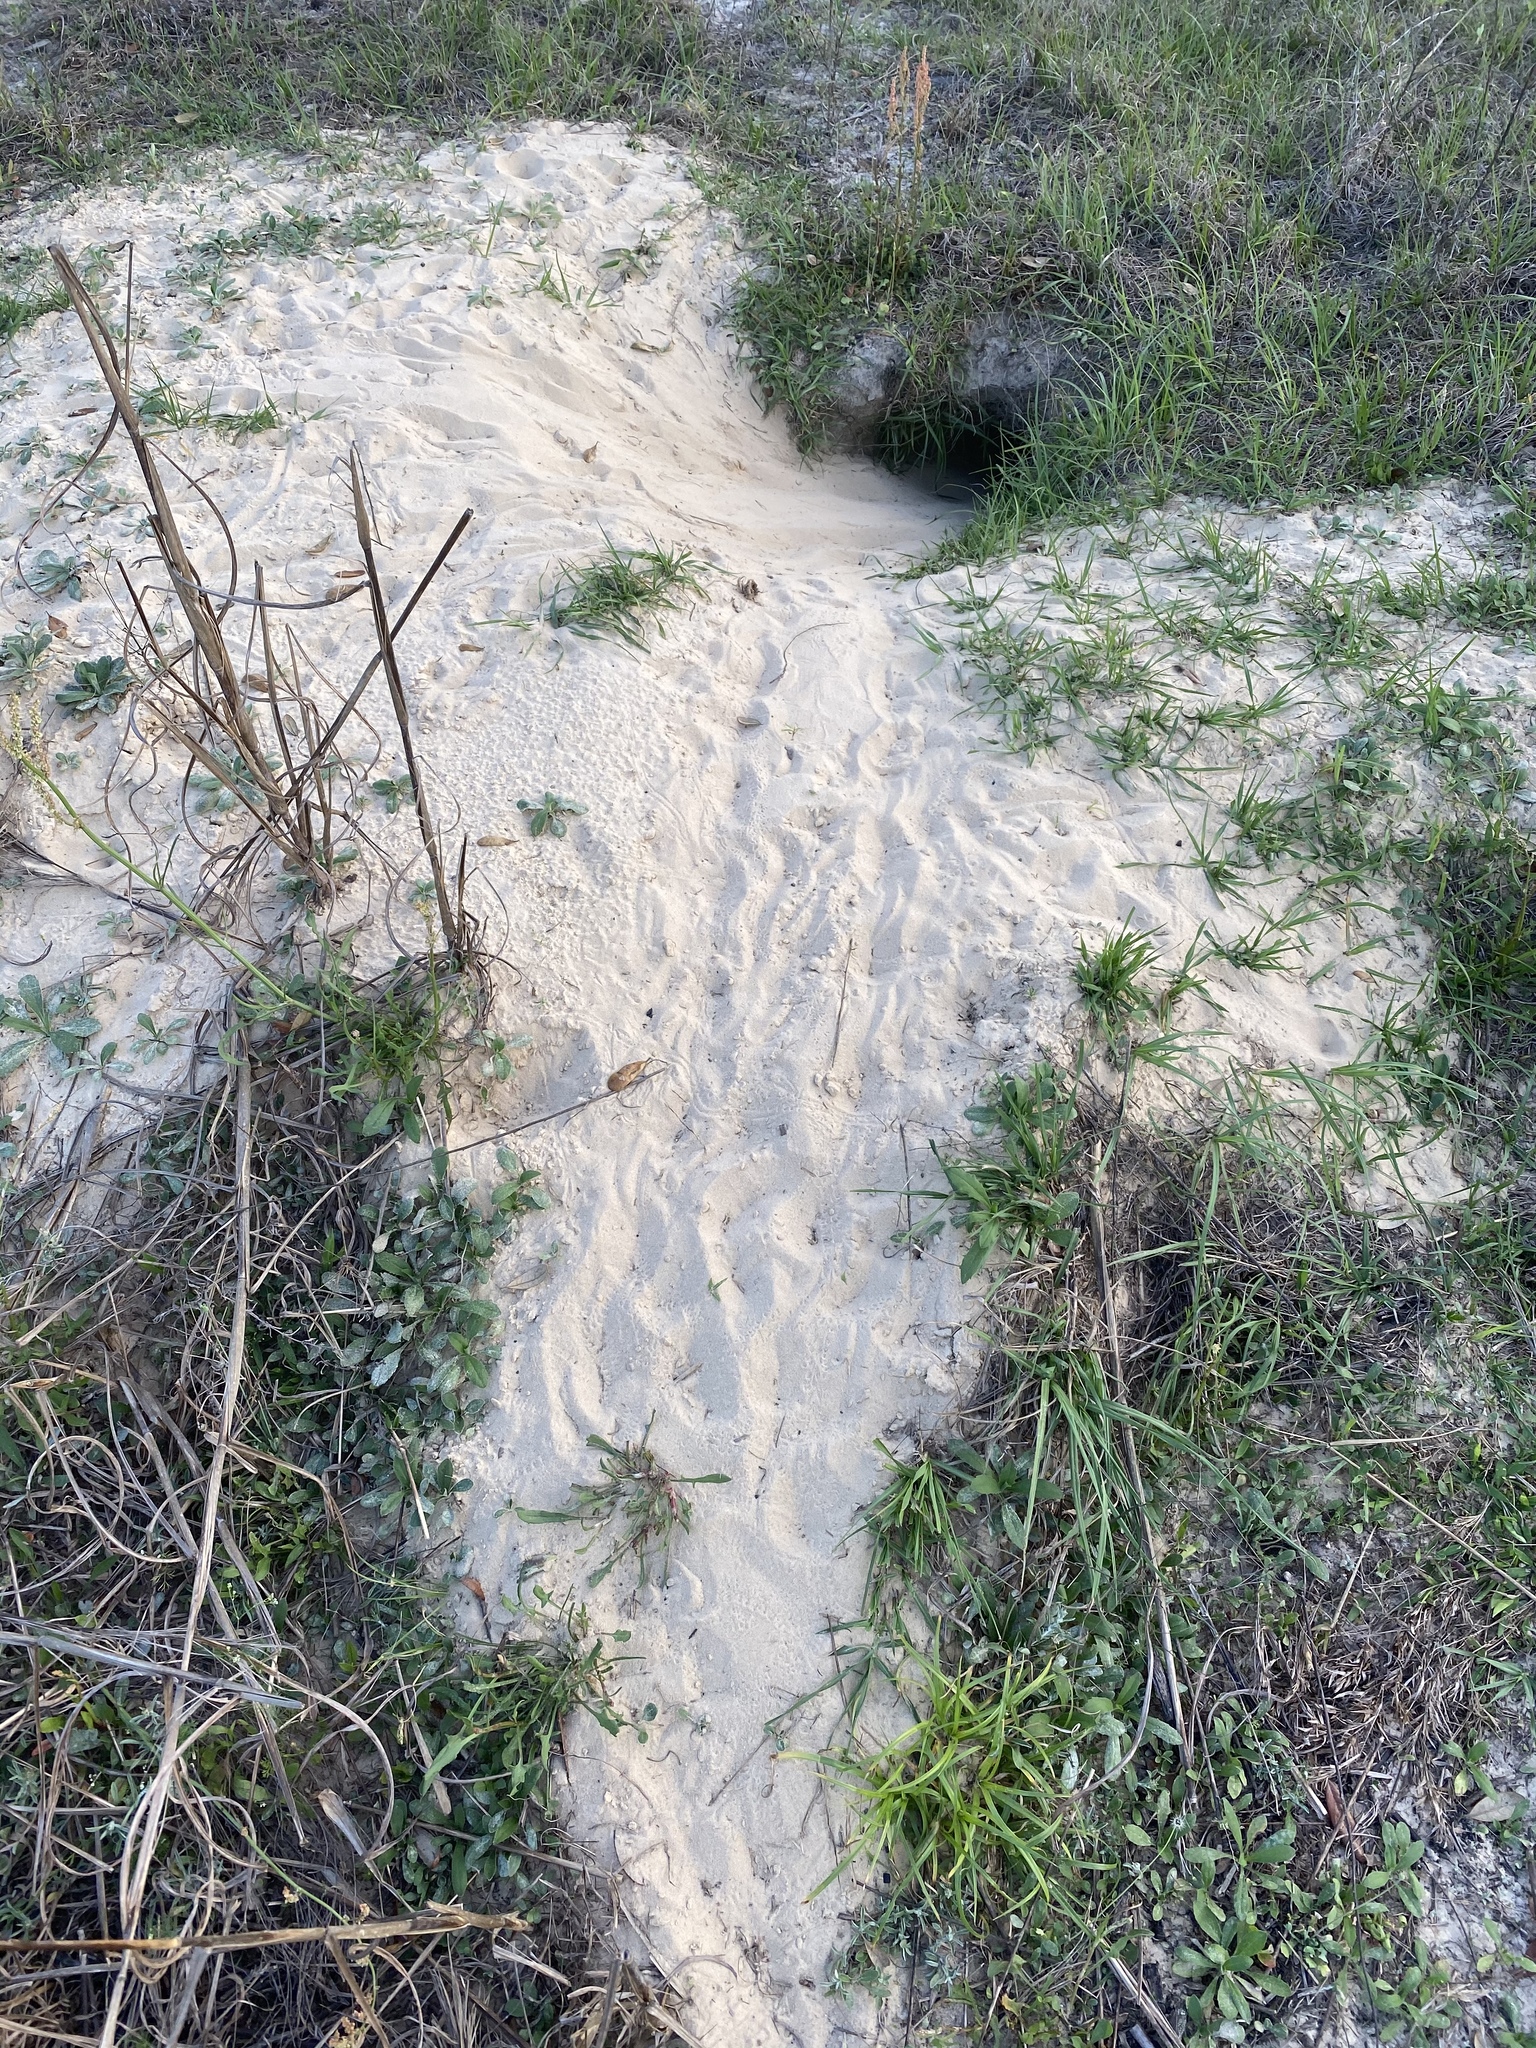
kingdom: Animalia
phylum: Chordata
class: Testudines
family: Testudinidae
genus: Gopherus
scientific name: Gopherus polyphemus
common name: Florida gopher tortoise
